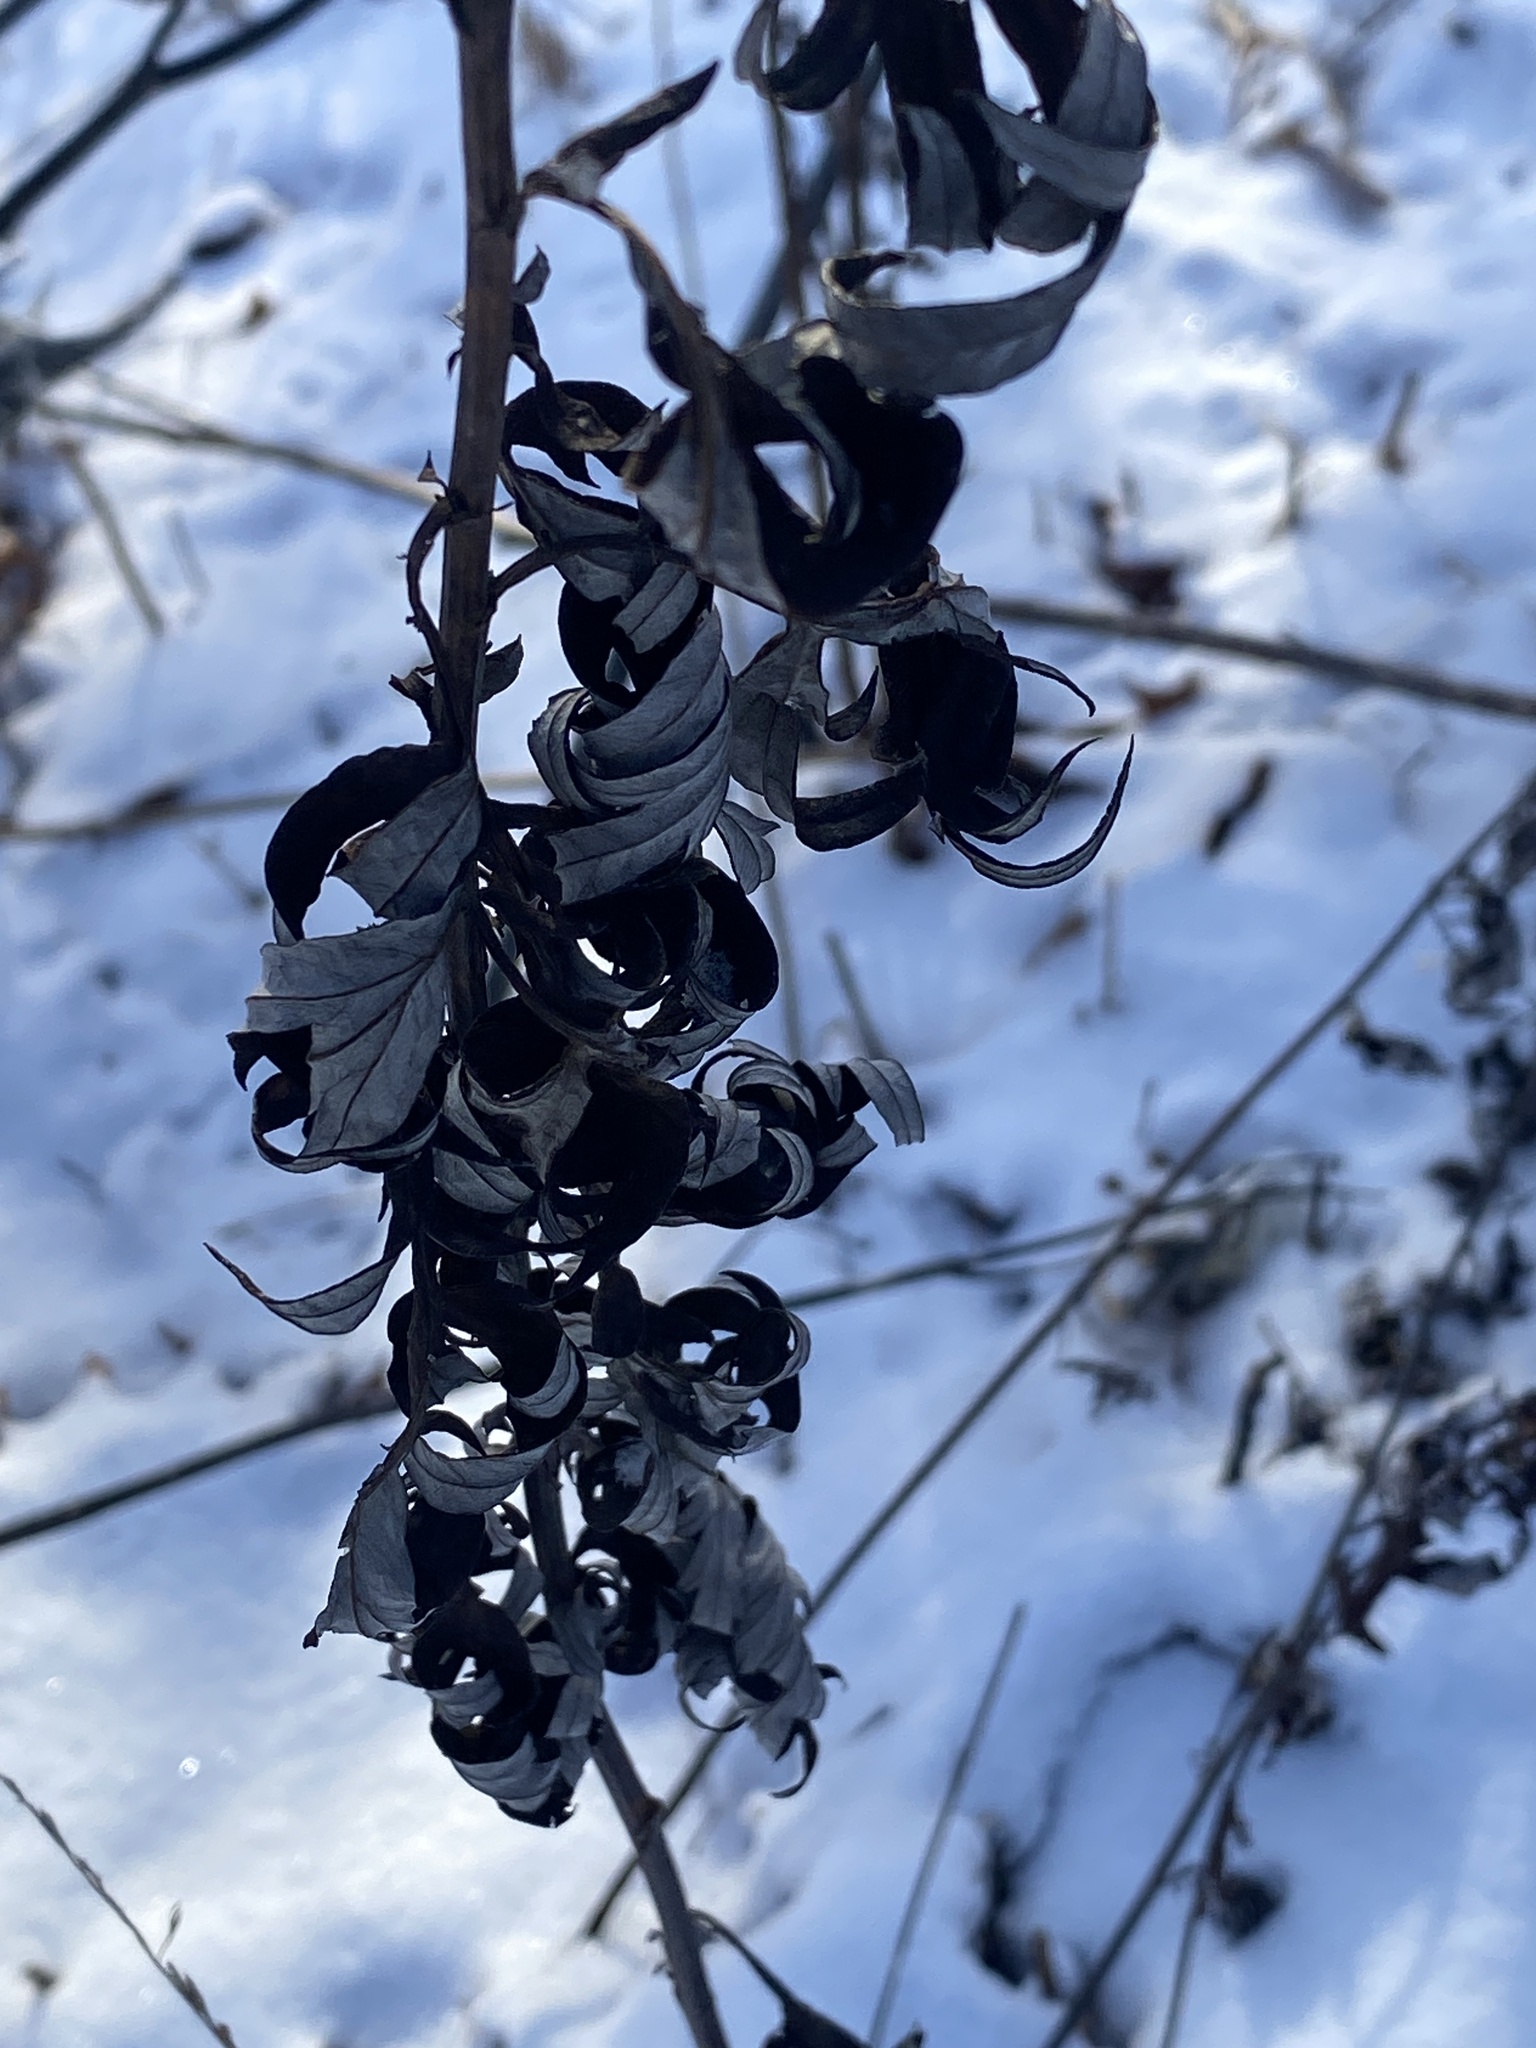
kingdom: Plantae
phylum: Tracheophyta
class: Magnoliopsida
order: Asterales
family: Asteraceae
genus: Artemisia
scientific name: Artemisia vulgaris
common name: Mugwort
